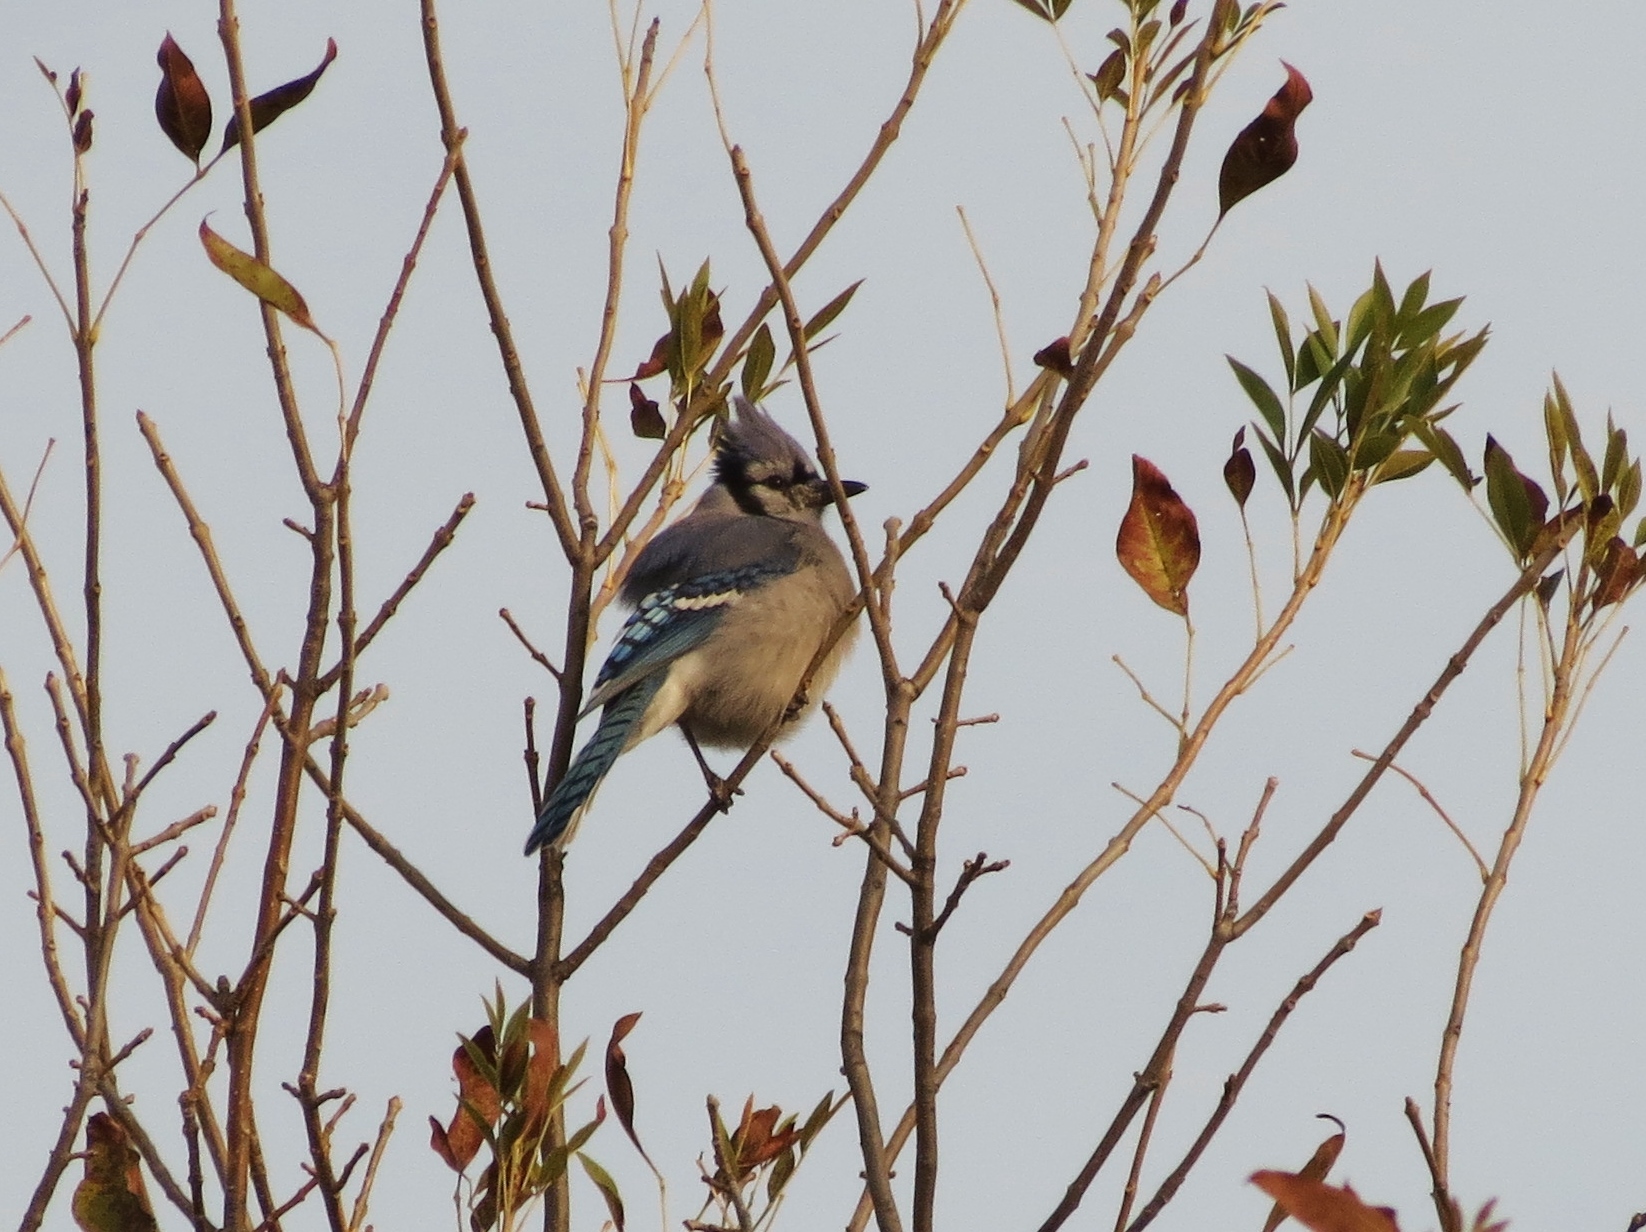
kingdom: Animalia
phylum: Chordata
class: Aves
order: Passeriformes
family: Corvidae
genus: Cyanocitta
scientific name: Cyanocitta cristata
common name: Blue jay
